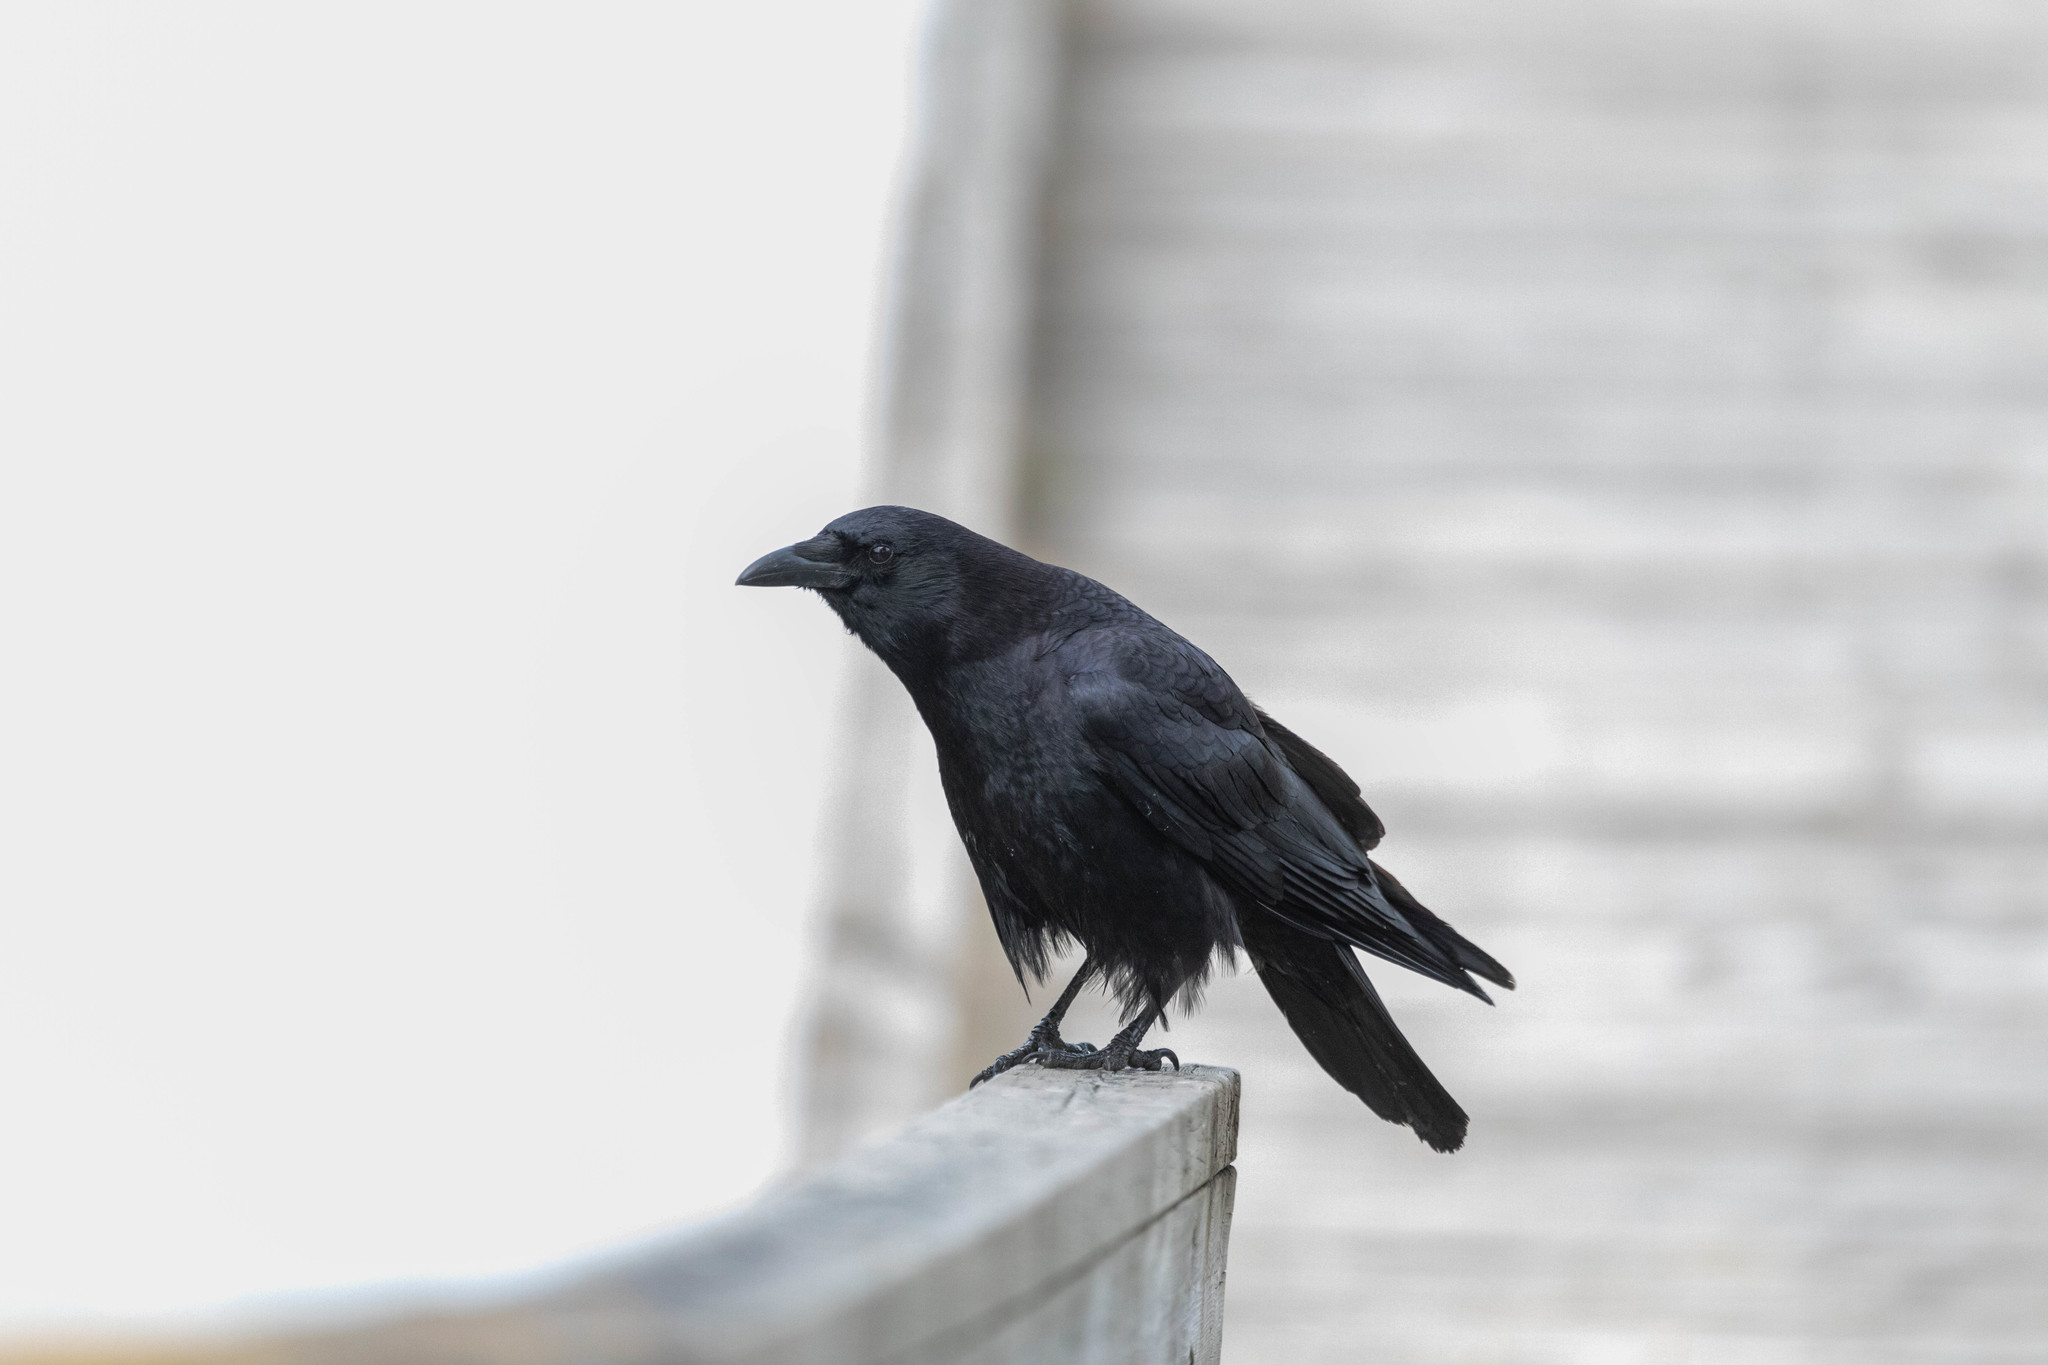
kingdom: Animalia
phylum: Chordata
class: Aves
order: Passeriformes
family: Corvidae
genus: Corvus
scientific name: Corvus brachyrhynchos
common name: American crow
